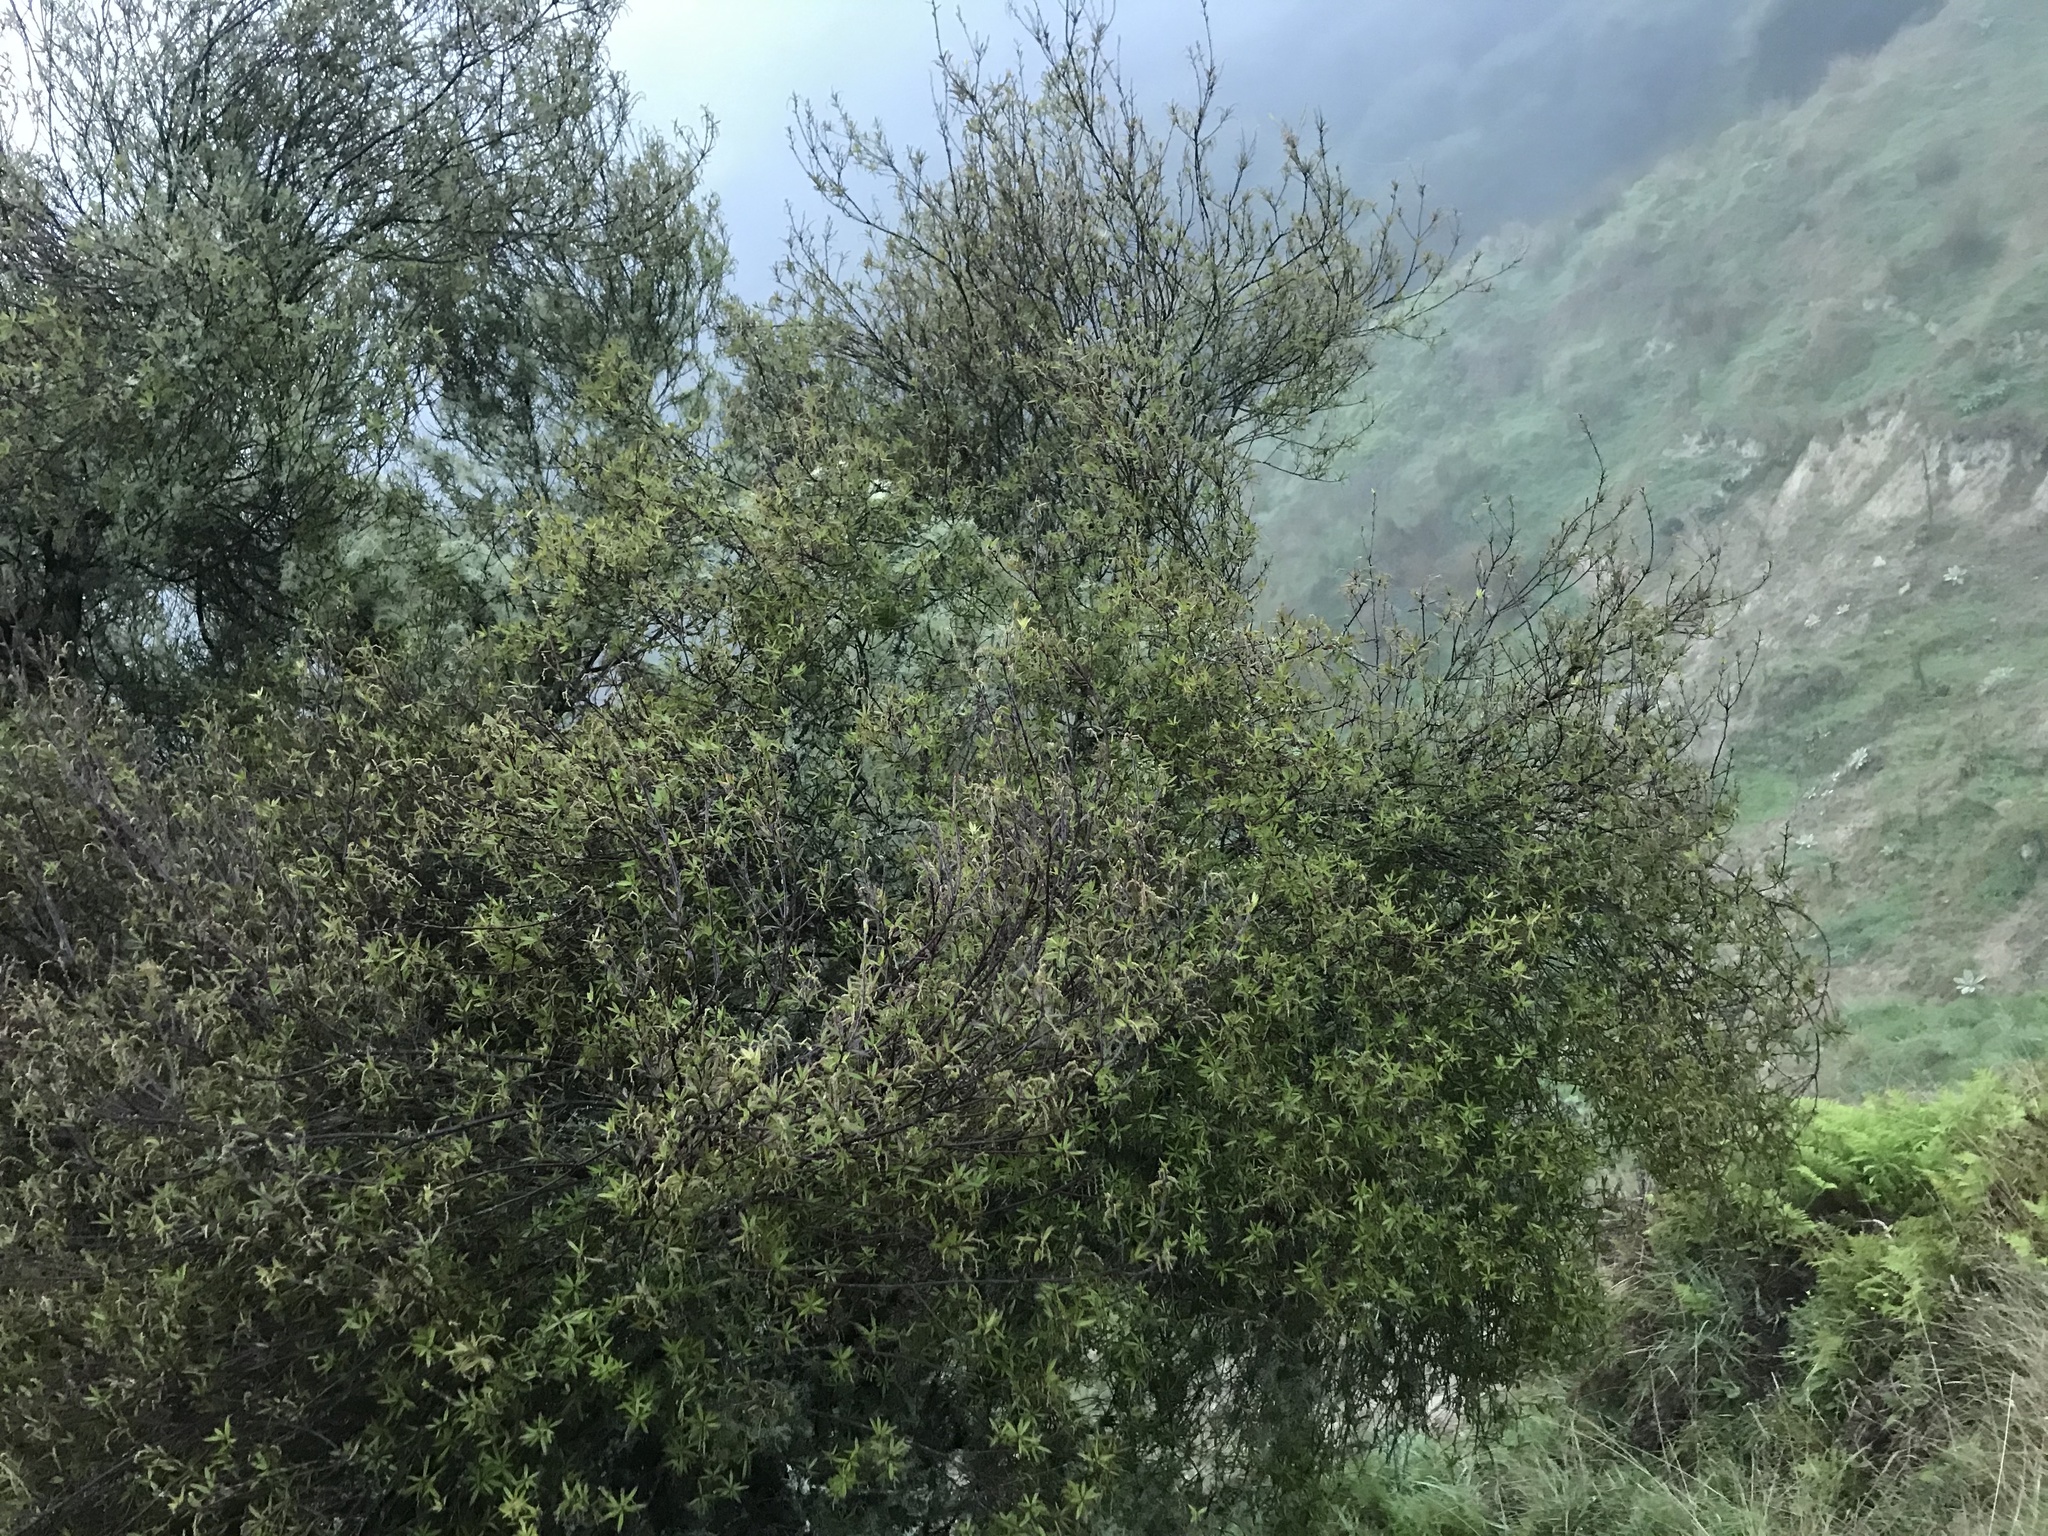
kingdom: Plantae
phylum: Tracheophyta
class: Magnoliopsida
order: Ericales
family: Ericaceae
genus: Leucopogon
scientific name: Leucopogon fasciculatus
